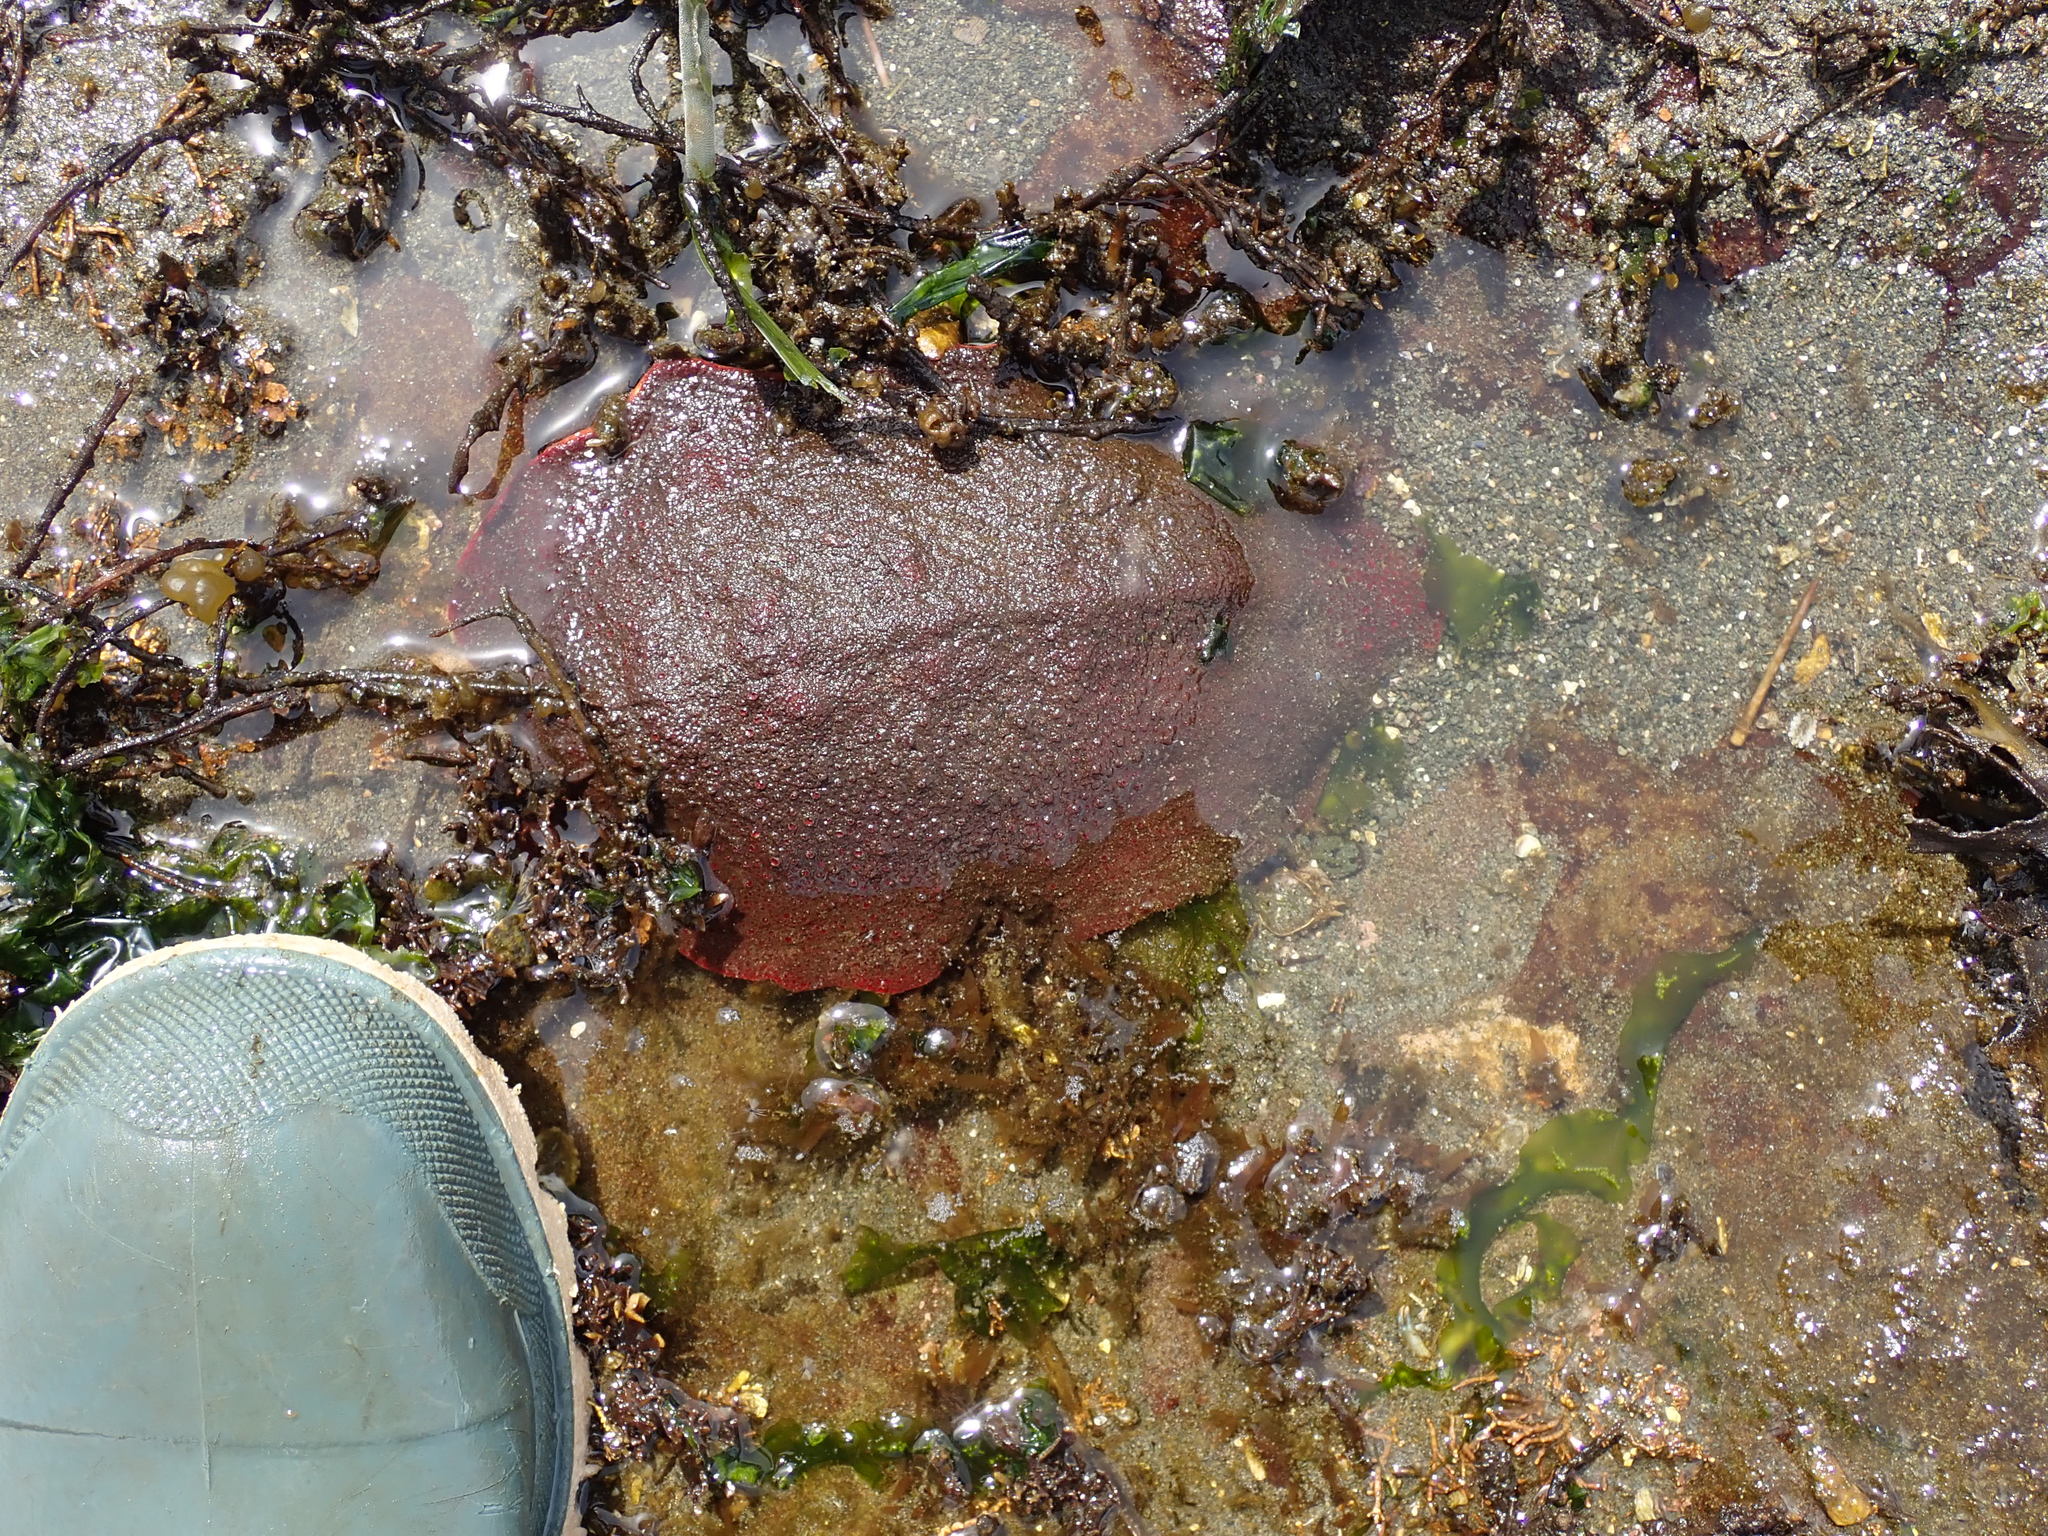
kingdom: Animalia
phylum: Mollusca
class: Polyplacophora
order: Chitonida
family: Acanthochitonidae
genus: Cryptochiton
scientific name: Cryptochiton stelleri
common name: Giant pacific chiton
